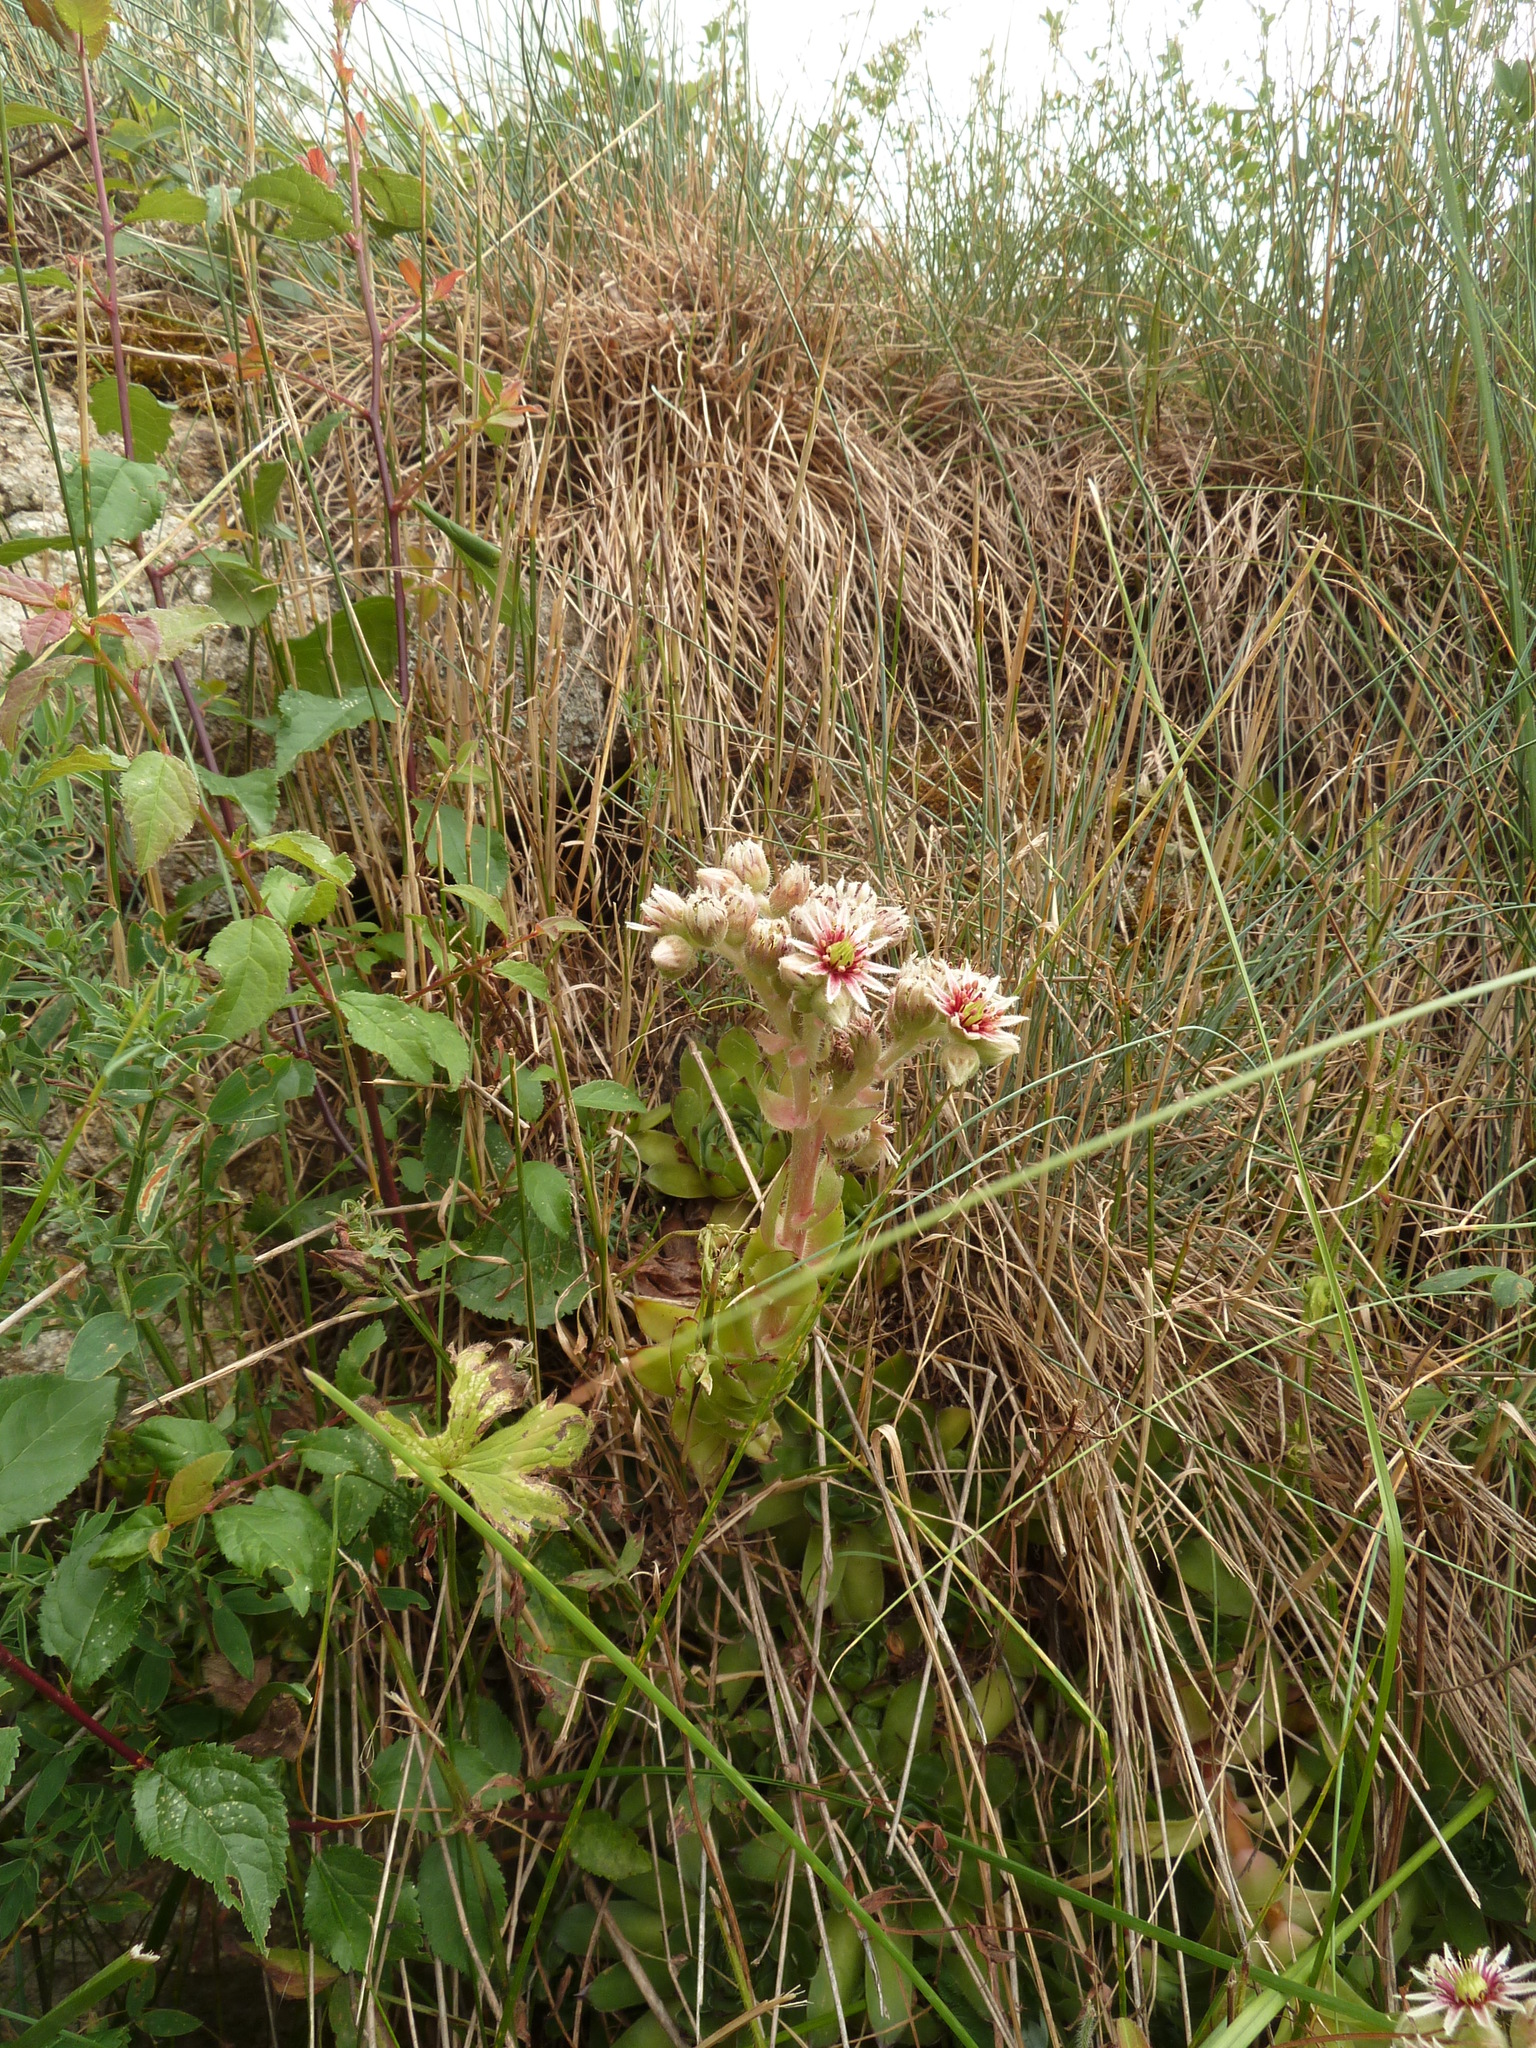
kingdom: Plantae
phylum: Tracheophyta
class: Magnoliopsida
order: Saxifragales
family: Crassulaceae
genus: Sempervivum
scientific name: Sempervivum tectorum
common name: House-leek
